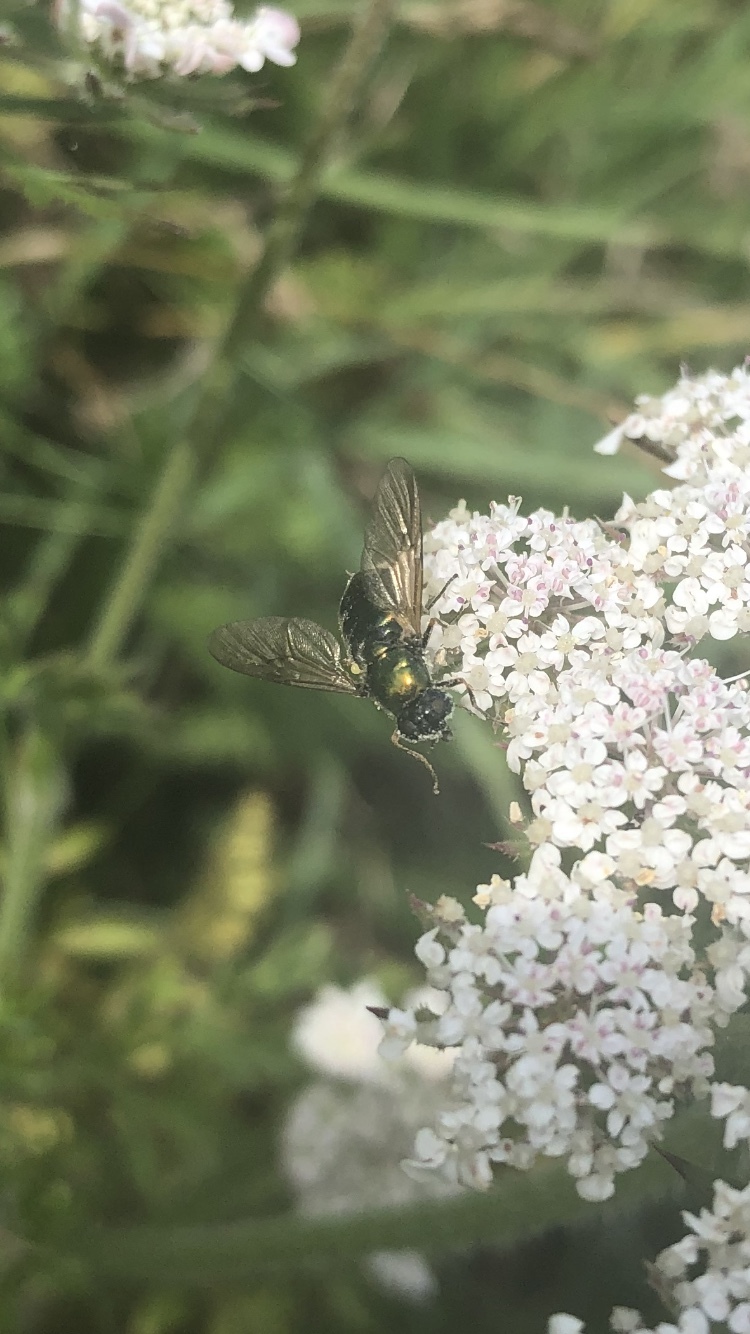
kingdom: Animalia
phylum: Arthropoda
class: Insecta
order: Diptera
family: Stratiomyidae
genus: Chloromyia
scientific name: Chloromyia formosa
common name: Soldier fly
